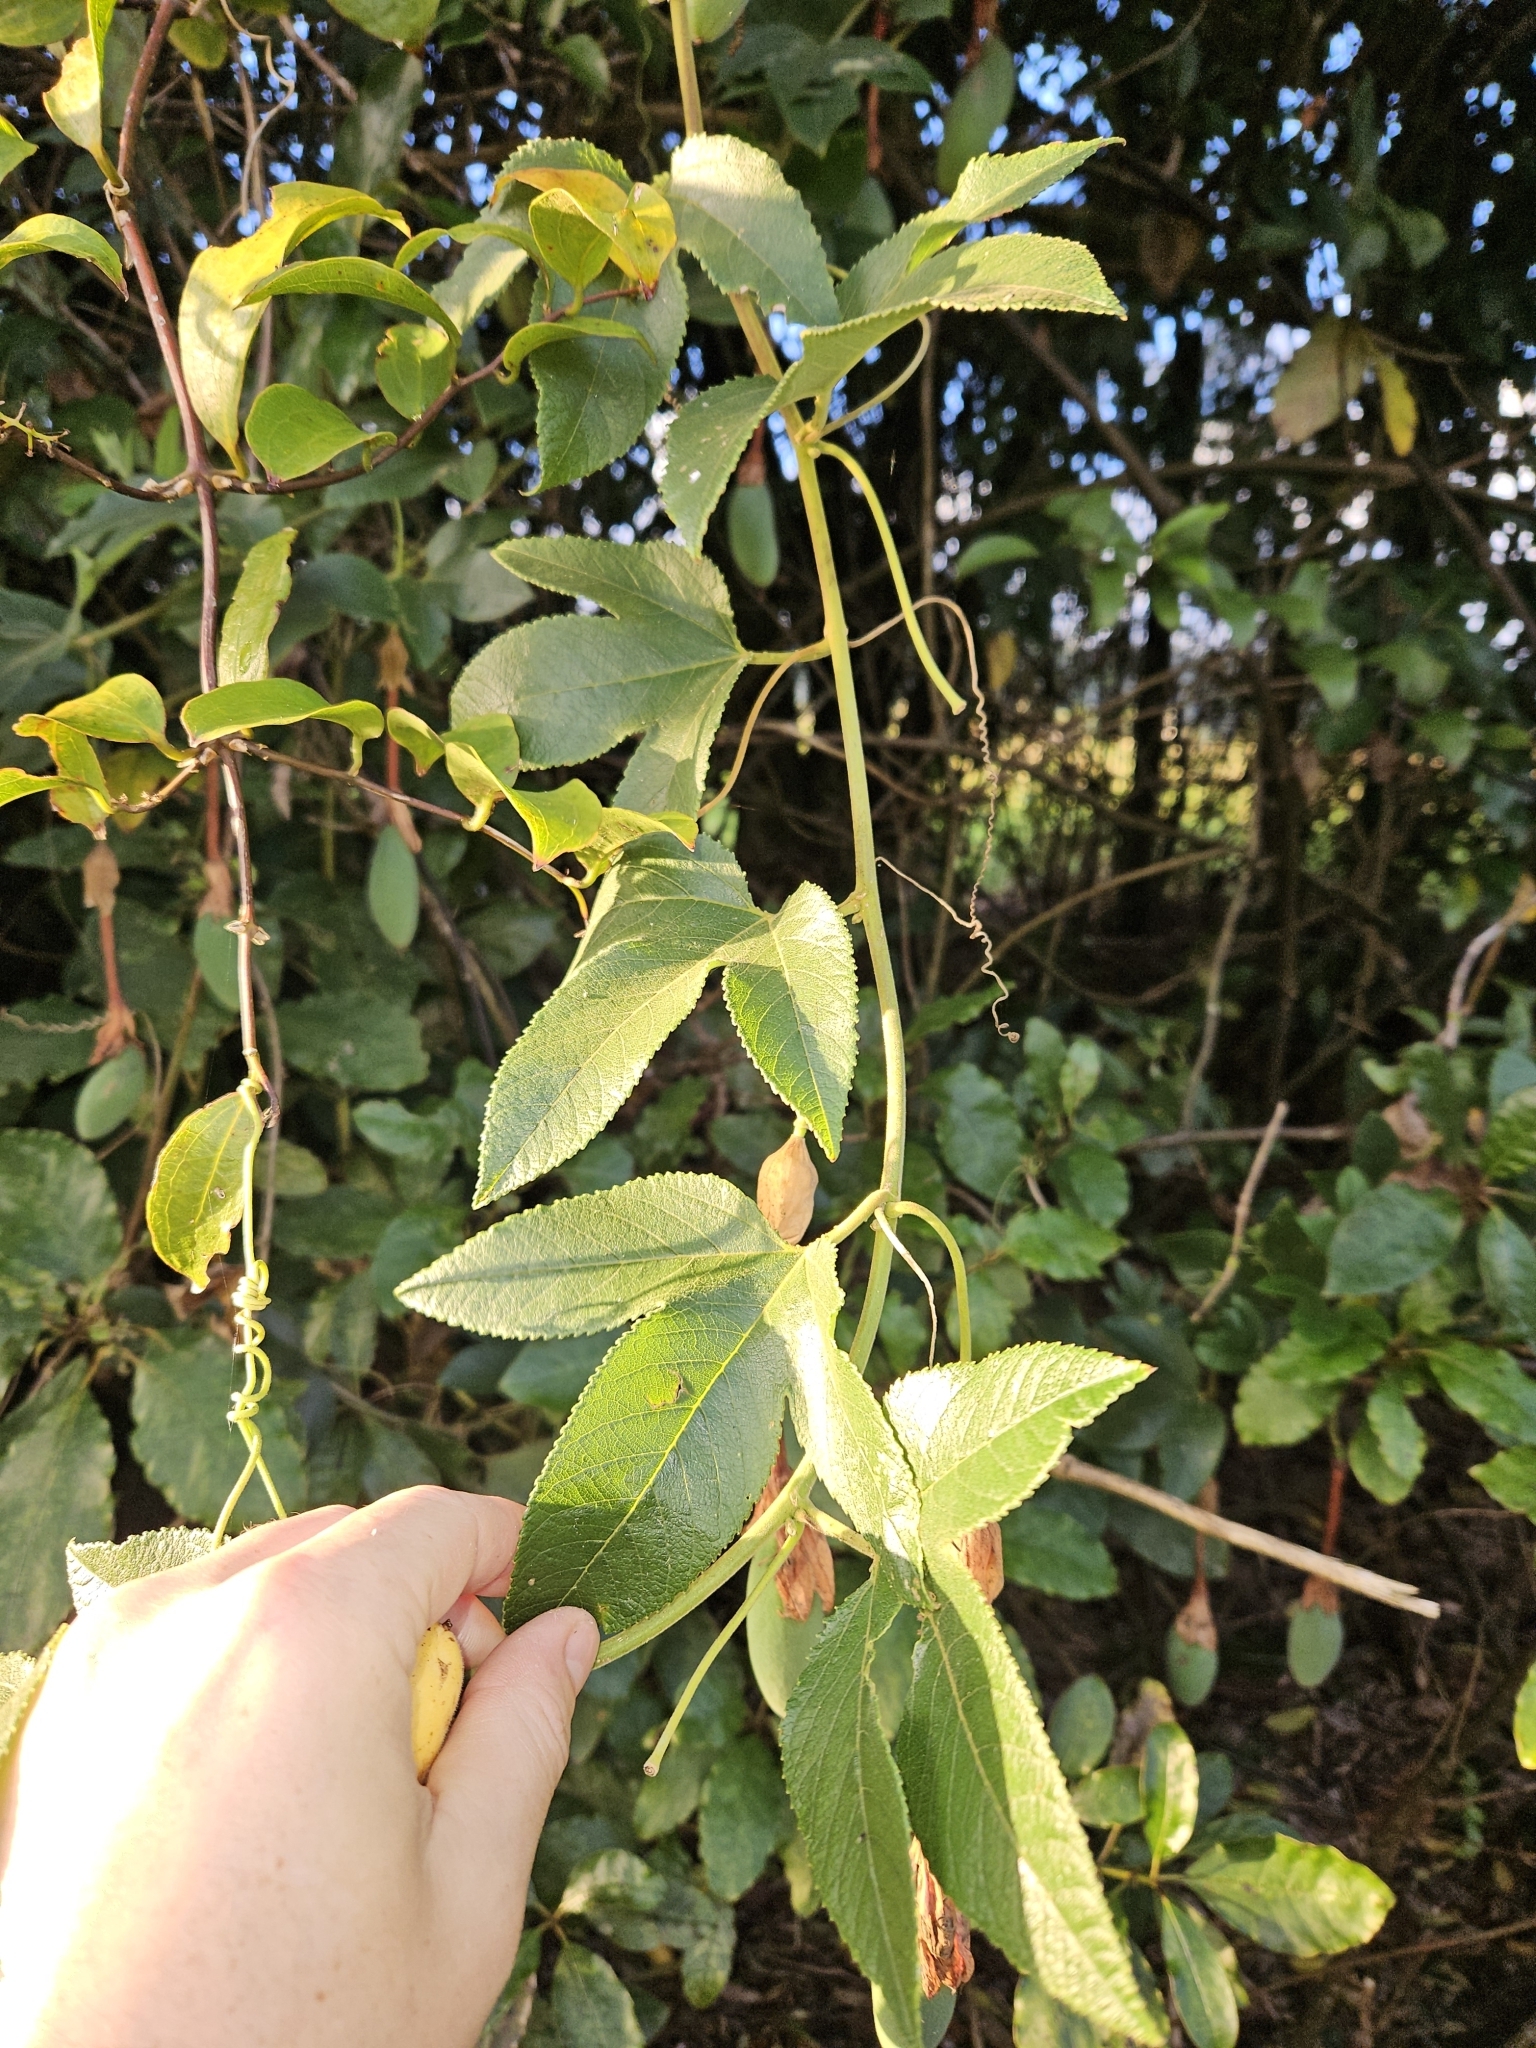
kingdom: Plantae
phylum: Tracheophyta
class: Magnoliopsida
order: Malpighiales
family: Passifloraceae
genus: Passiflora
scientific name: Passiflora tripartita
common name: Banana poka
